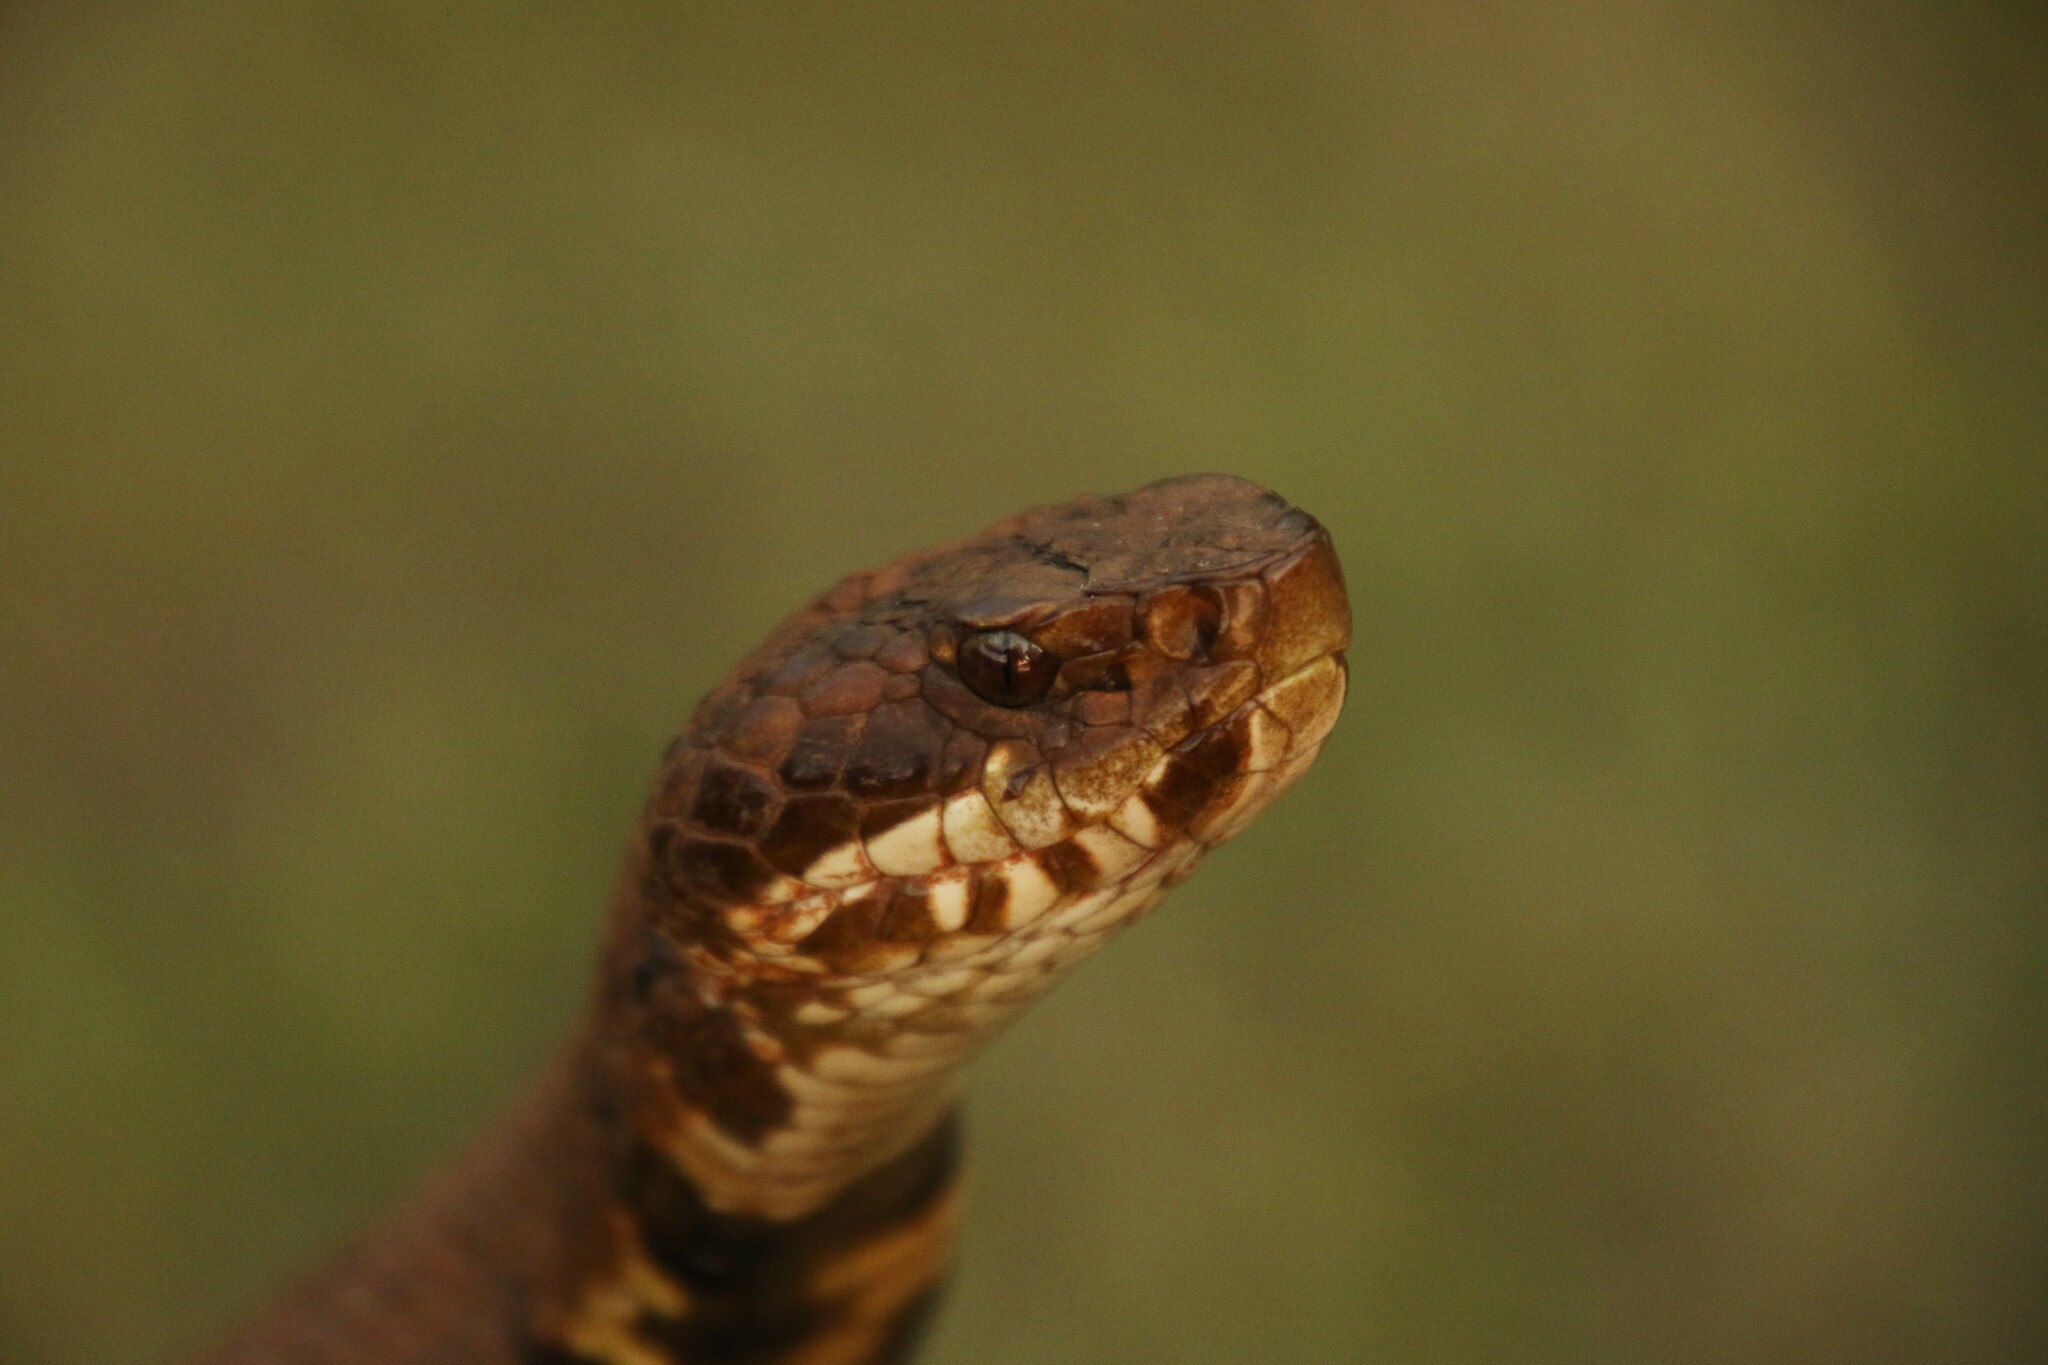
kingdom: Animalia
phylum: Chordata
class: Squamata
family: Viperidae
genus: Agkistrodon
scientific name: Agkistrodon piscivorus
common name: Cottonmouth
